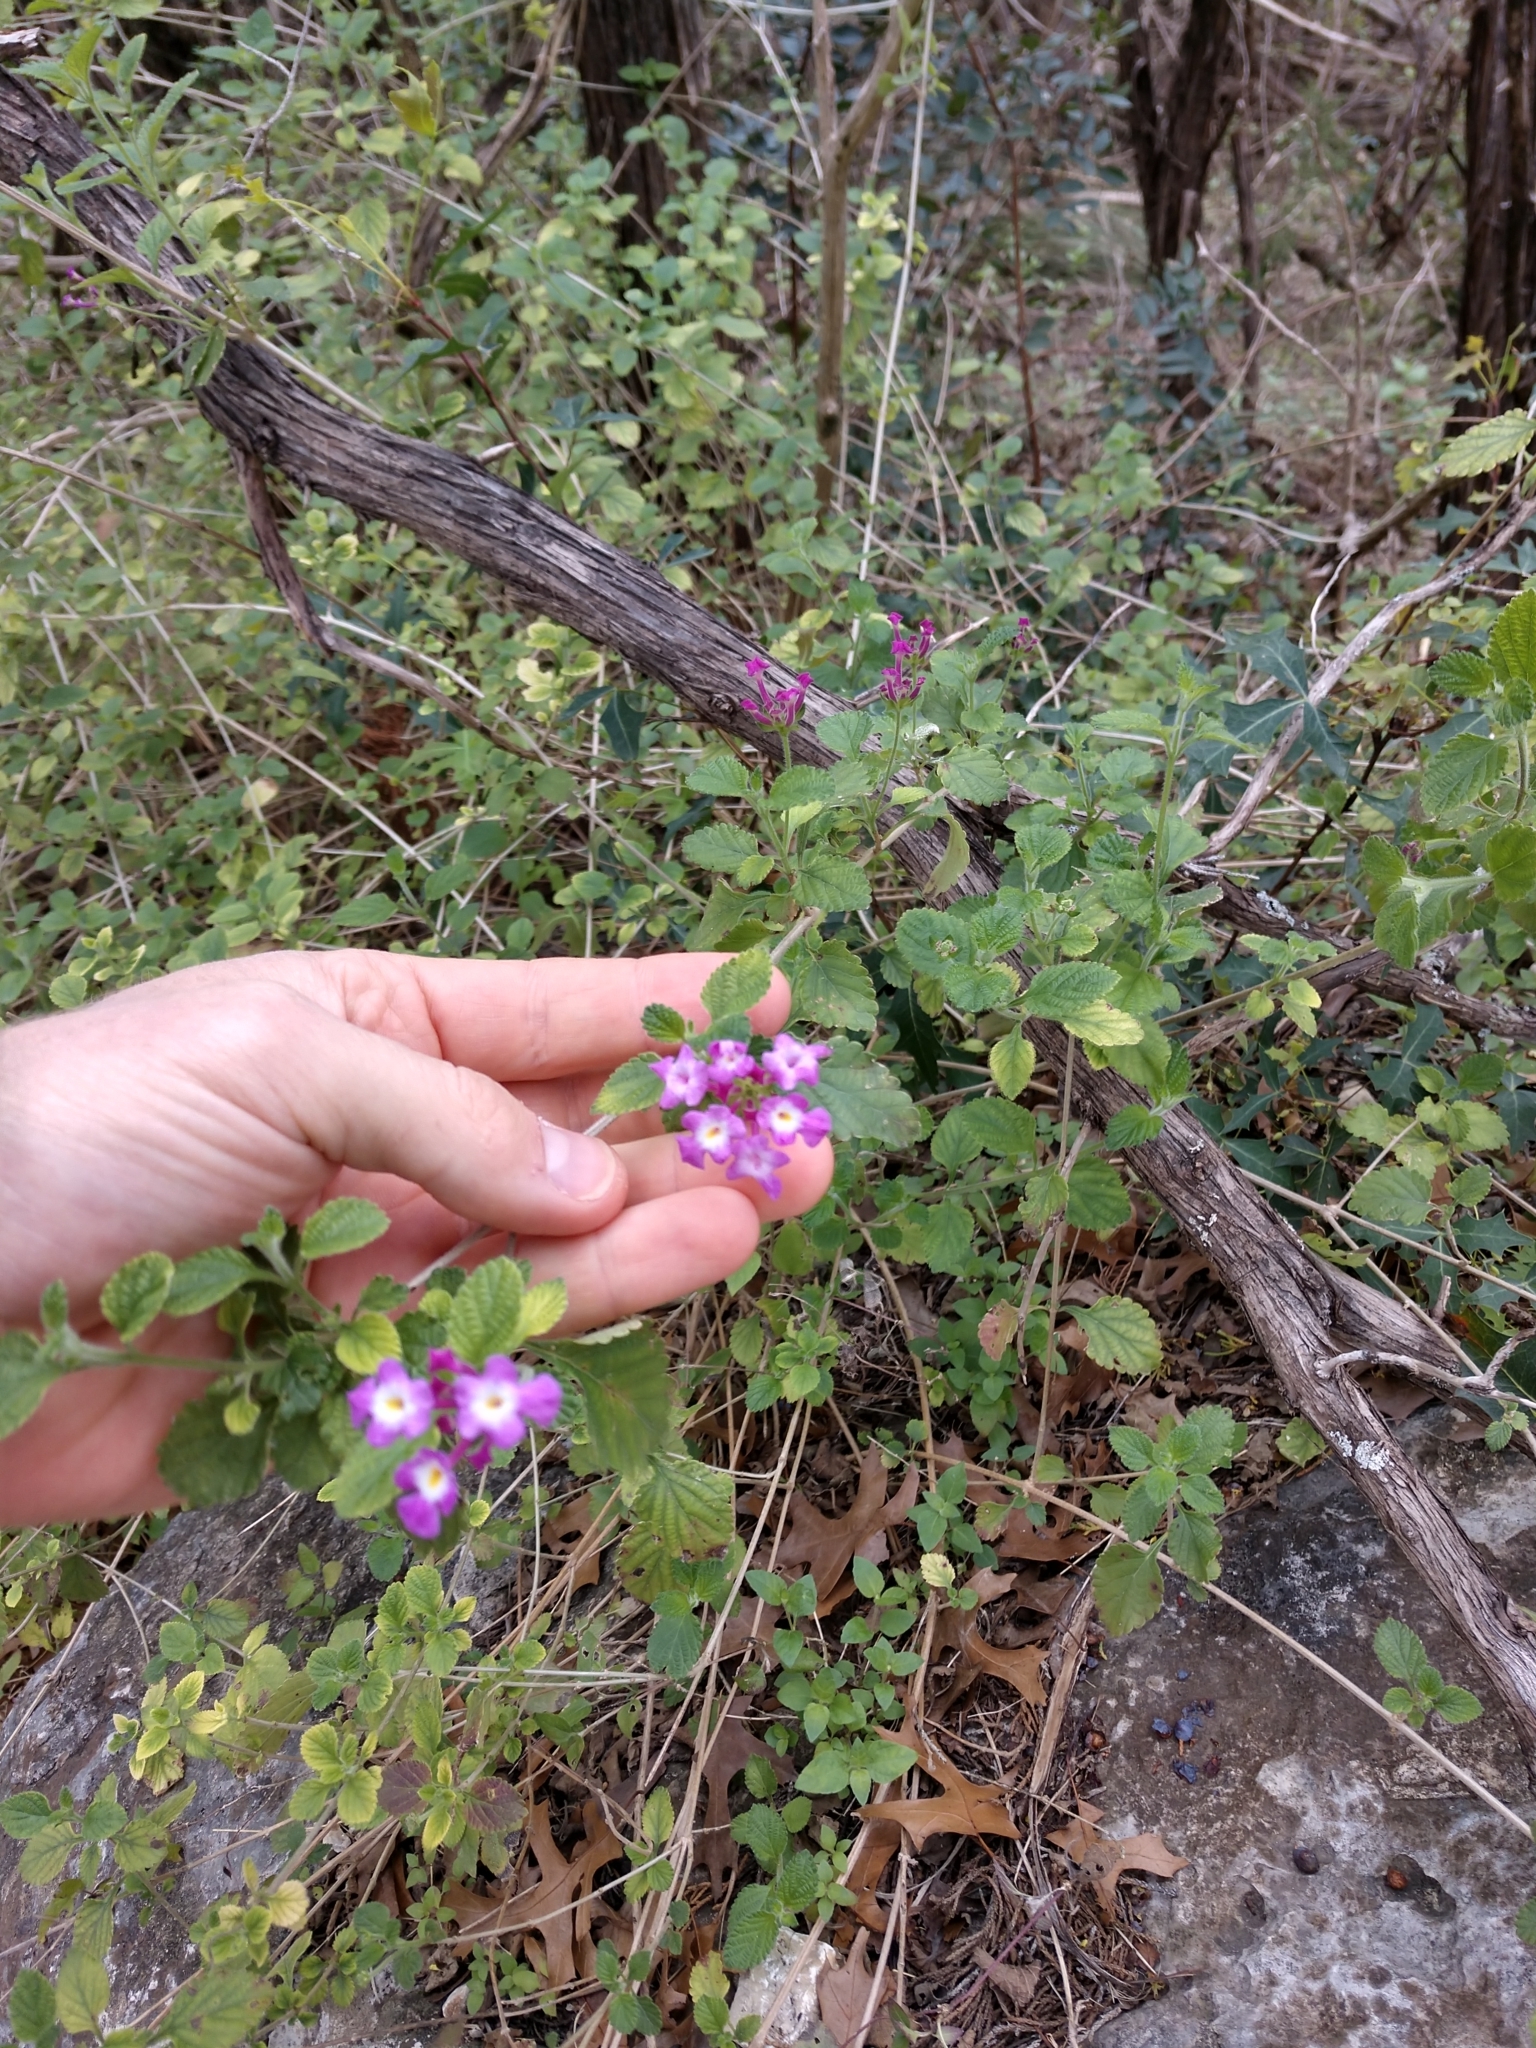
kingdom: Plantae
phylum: Tracheophyta
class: Magnoliopsida
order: Lamiales
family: Verbenaceae
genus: Lantana
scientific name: Lantana montevidensis
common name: Trailing shrubverbena
